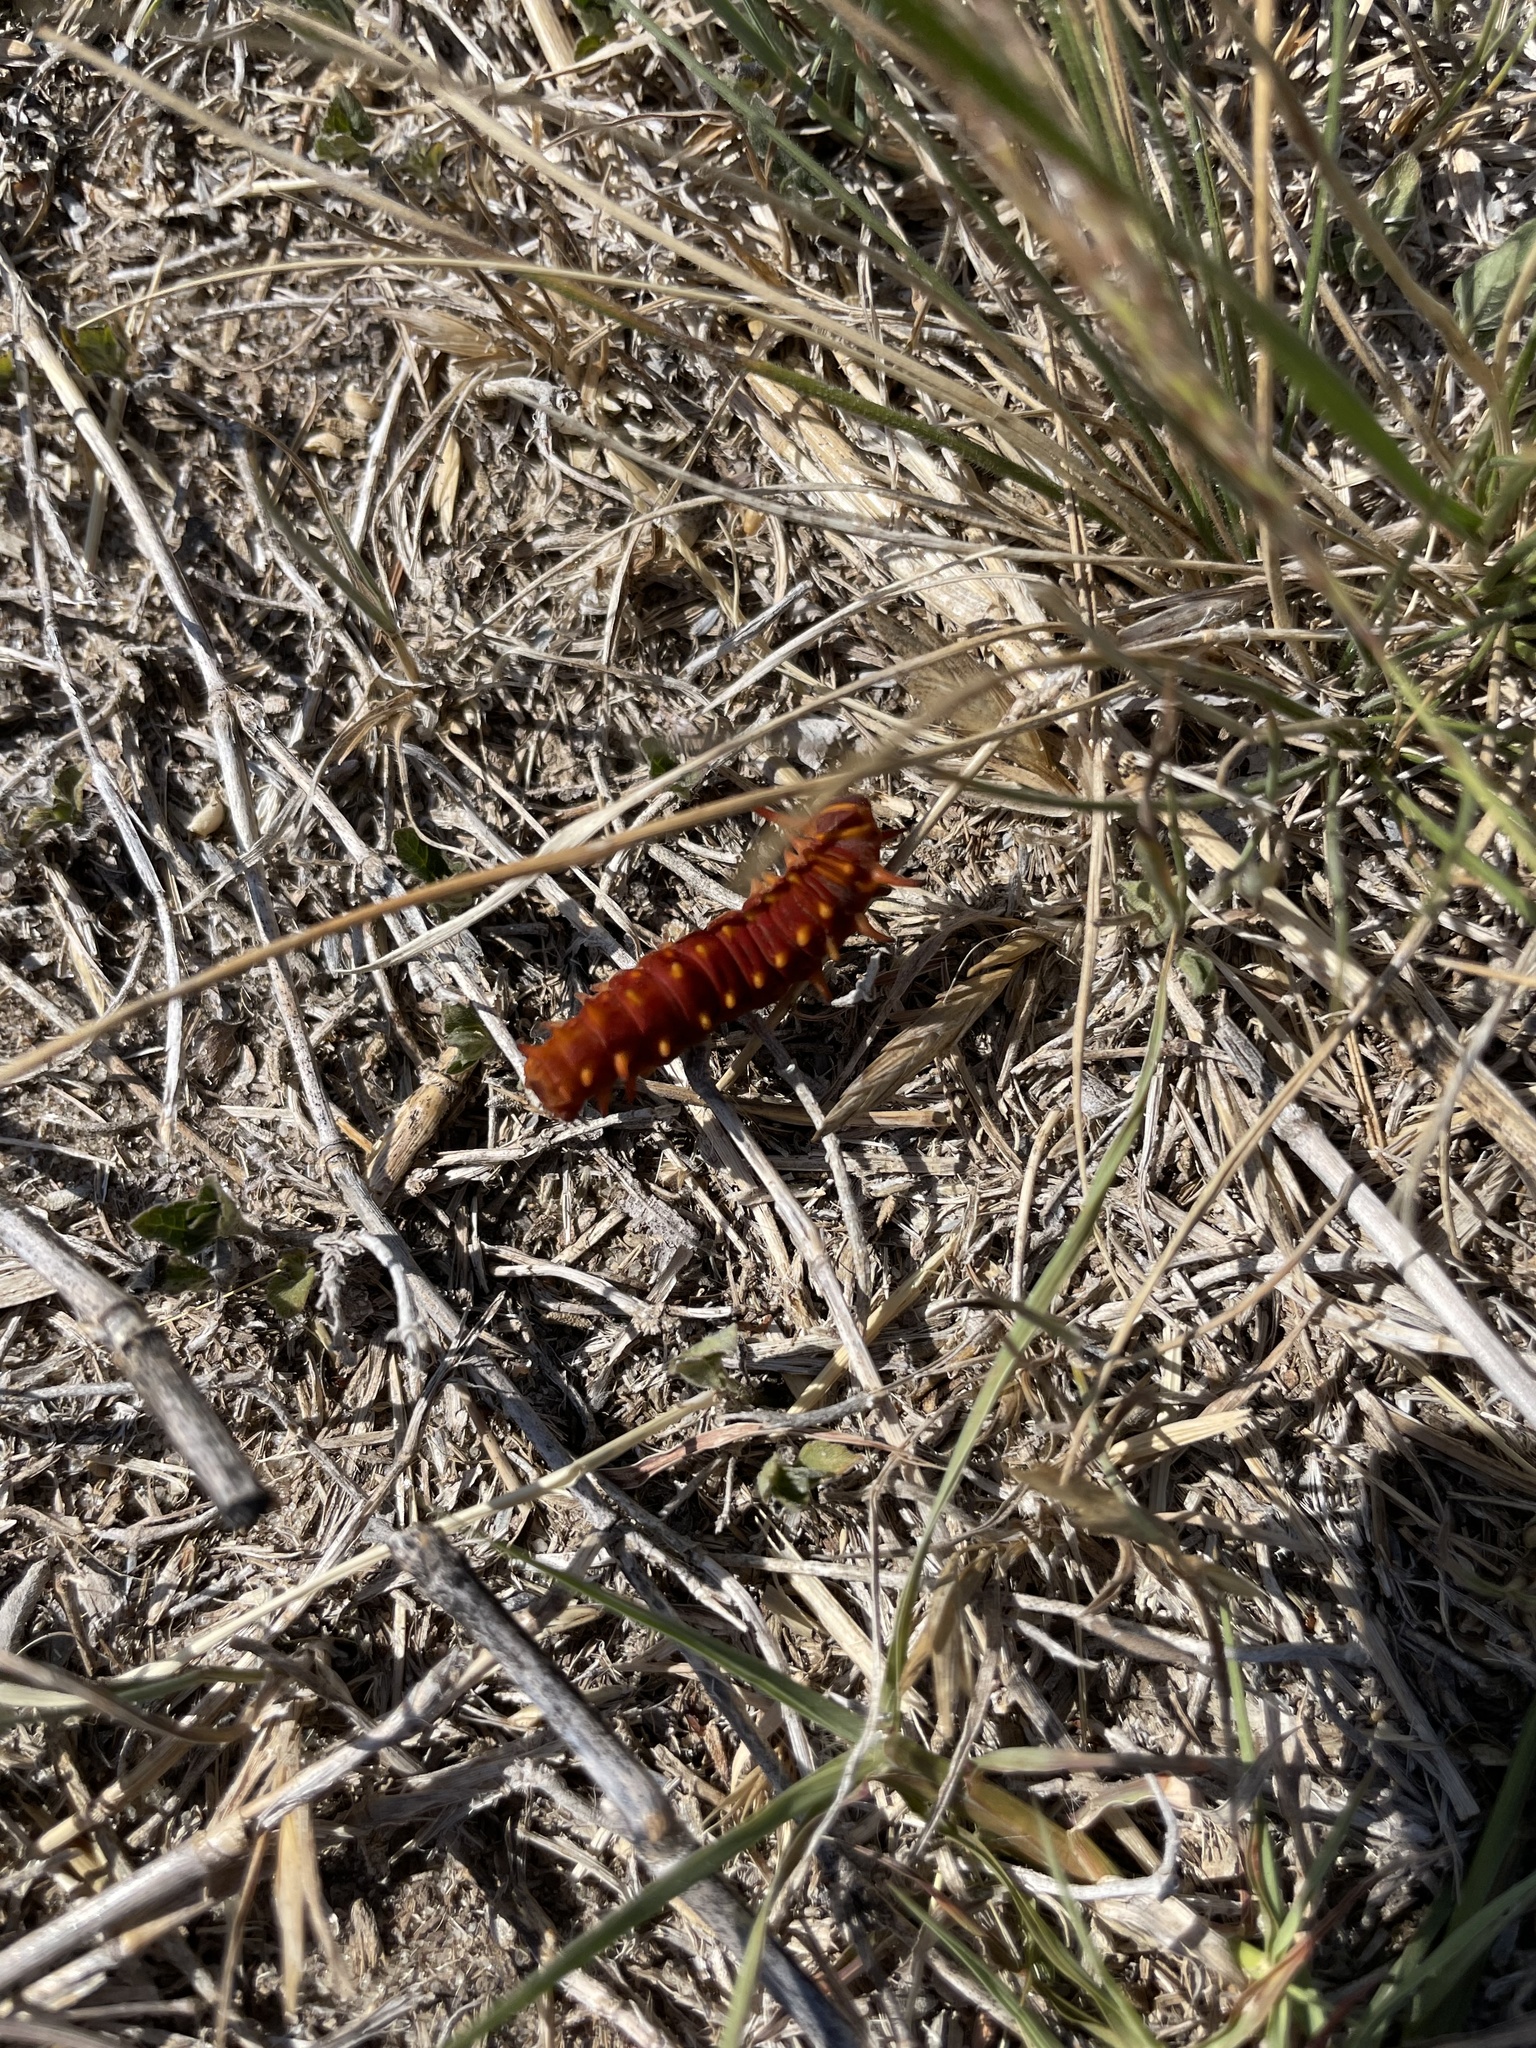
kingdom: Animalia
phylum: Arthropoda
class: Insecta
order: Lepidoptera
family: Papilionidae
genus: Battus
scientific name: Battus philenor
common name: Pipevine swallowtail
